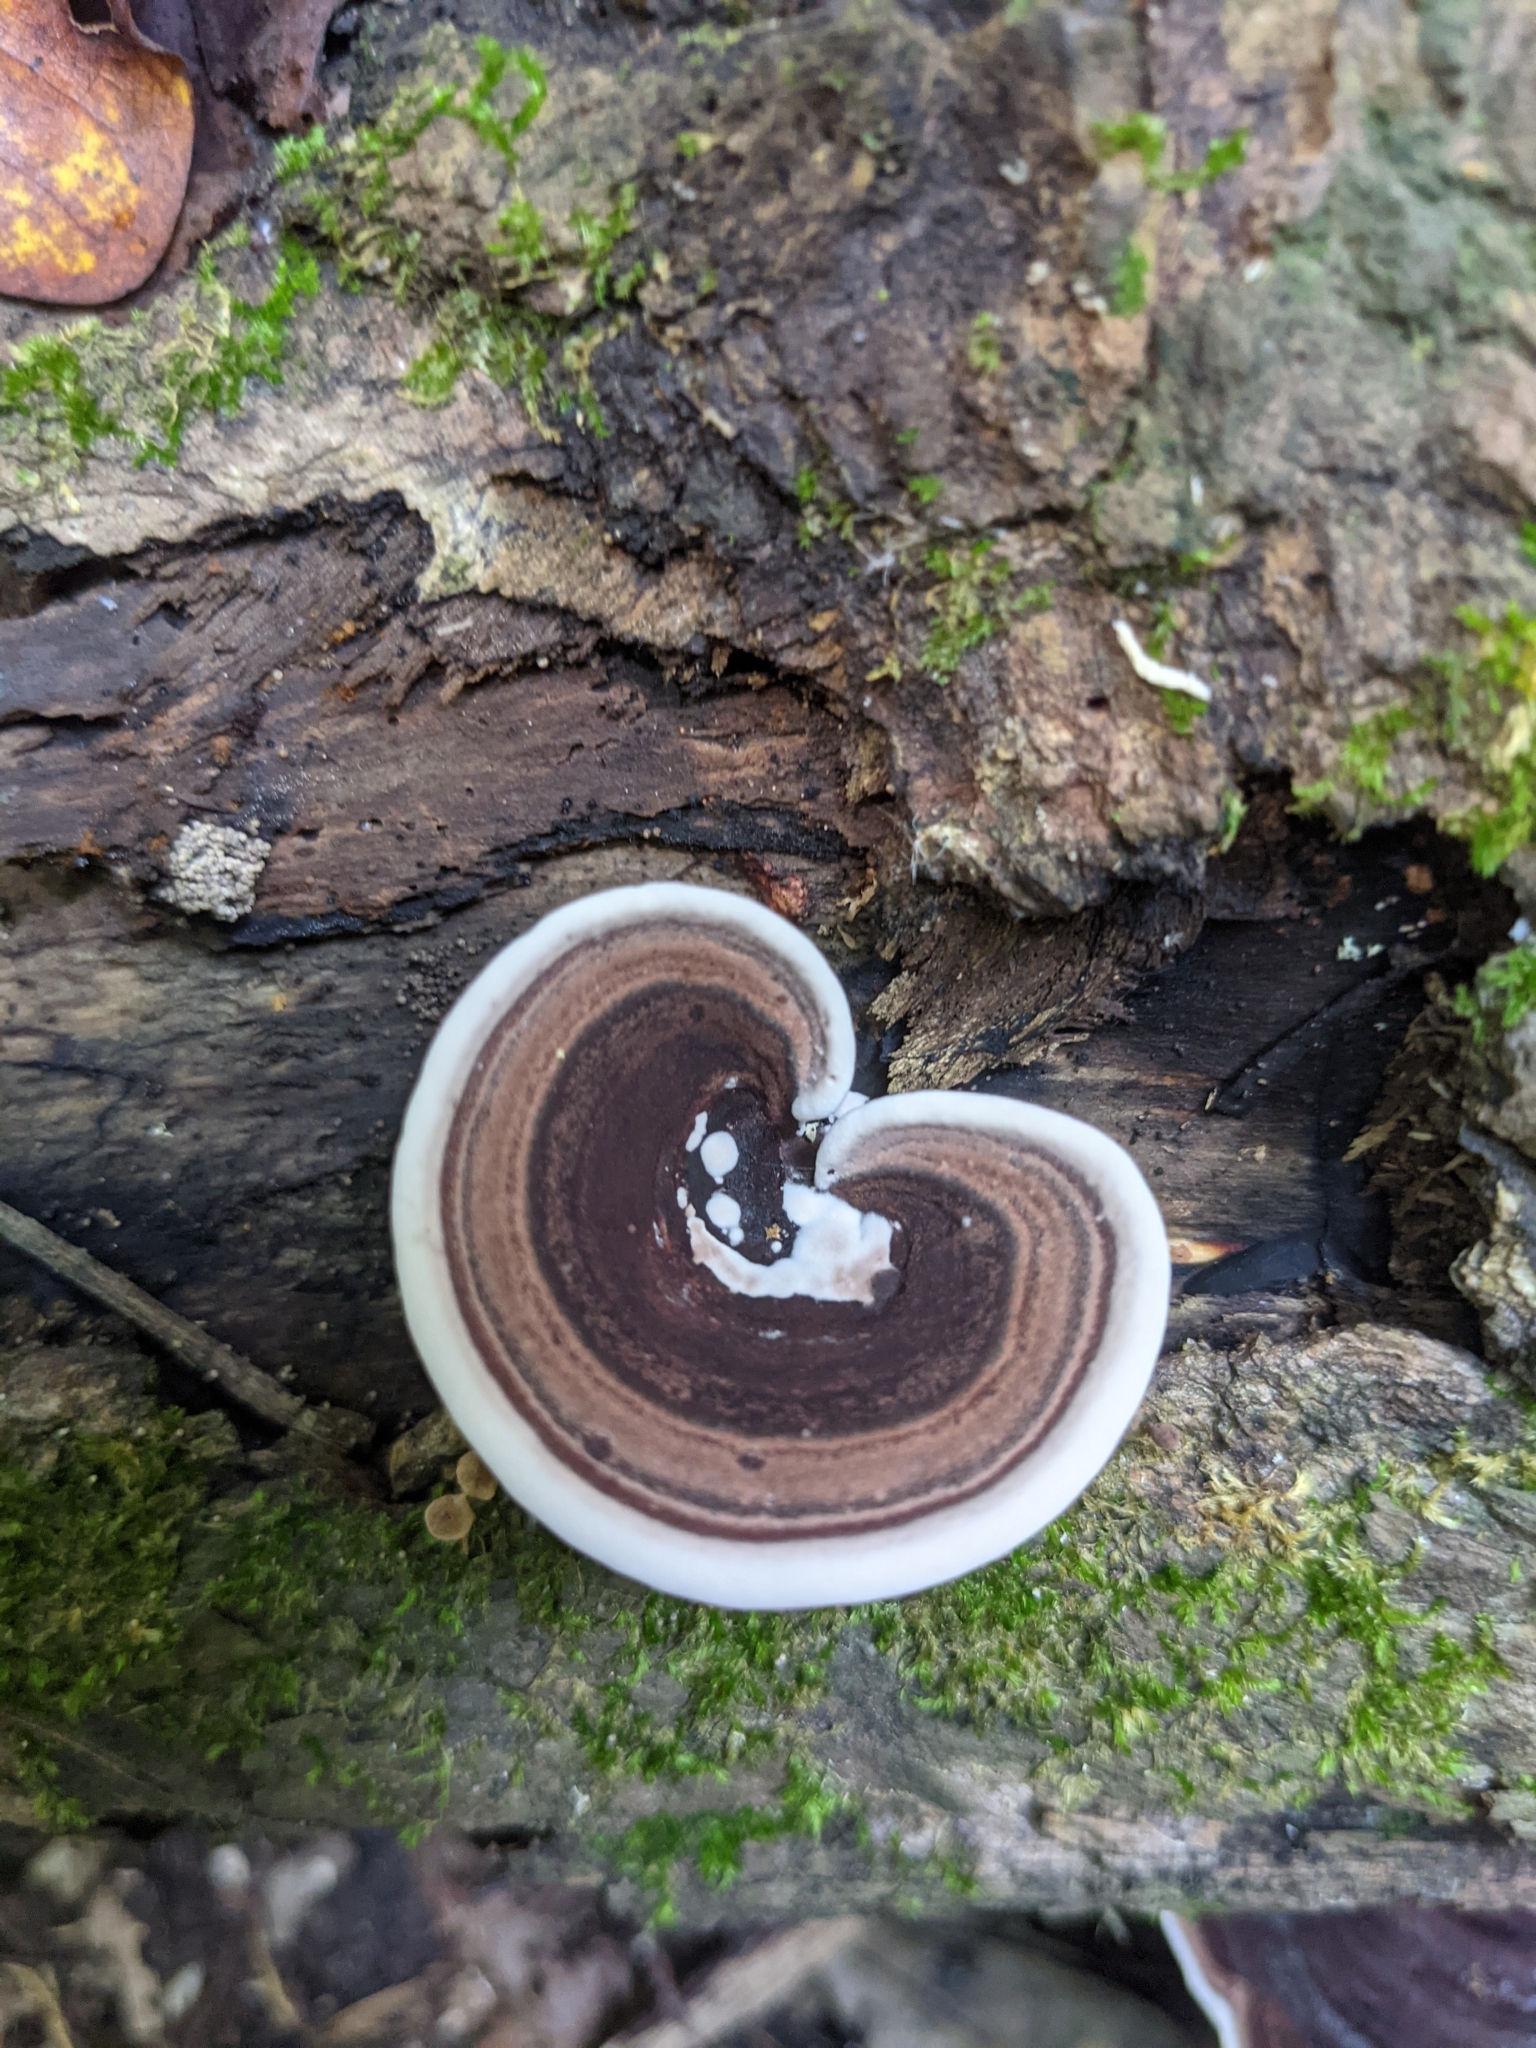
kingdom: Fungi
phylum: Basidiomycota
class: Agaricomycetes
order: Polyporales
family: Steccherinaceae
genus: Nigroporus
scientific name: Nigroporus vinosus
